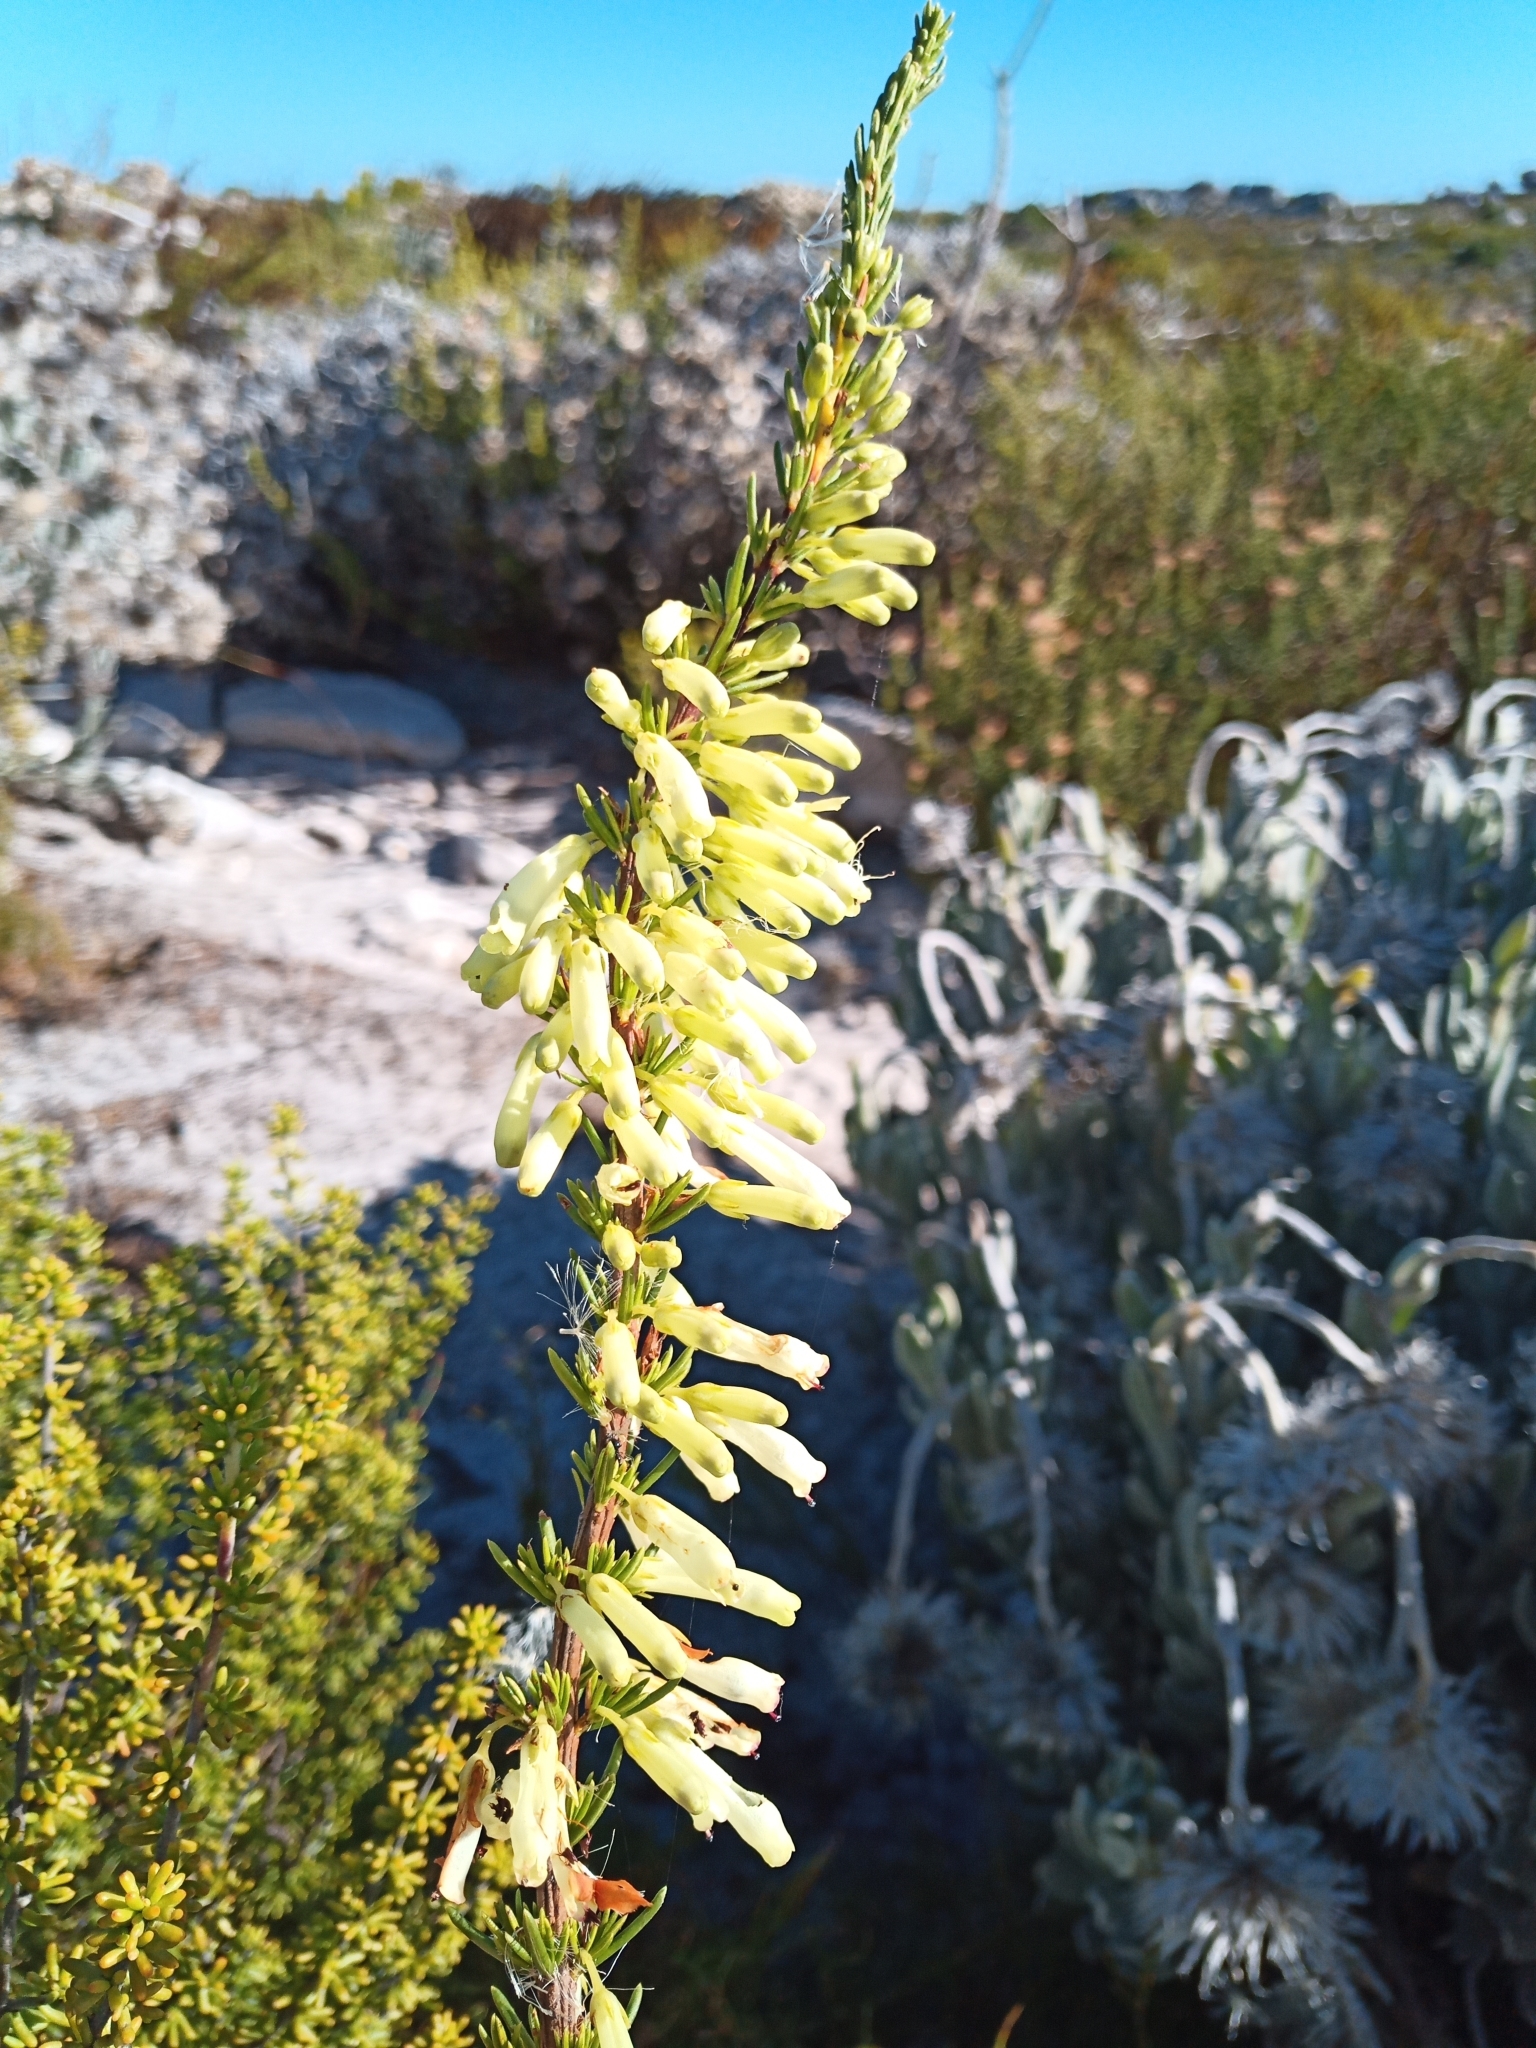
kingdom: Plantae
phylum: Tracheophyta
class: Magnoliopsida
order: Ericales
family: Ericaceae
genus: Erica
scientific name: Erica mammosa
